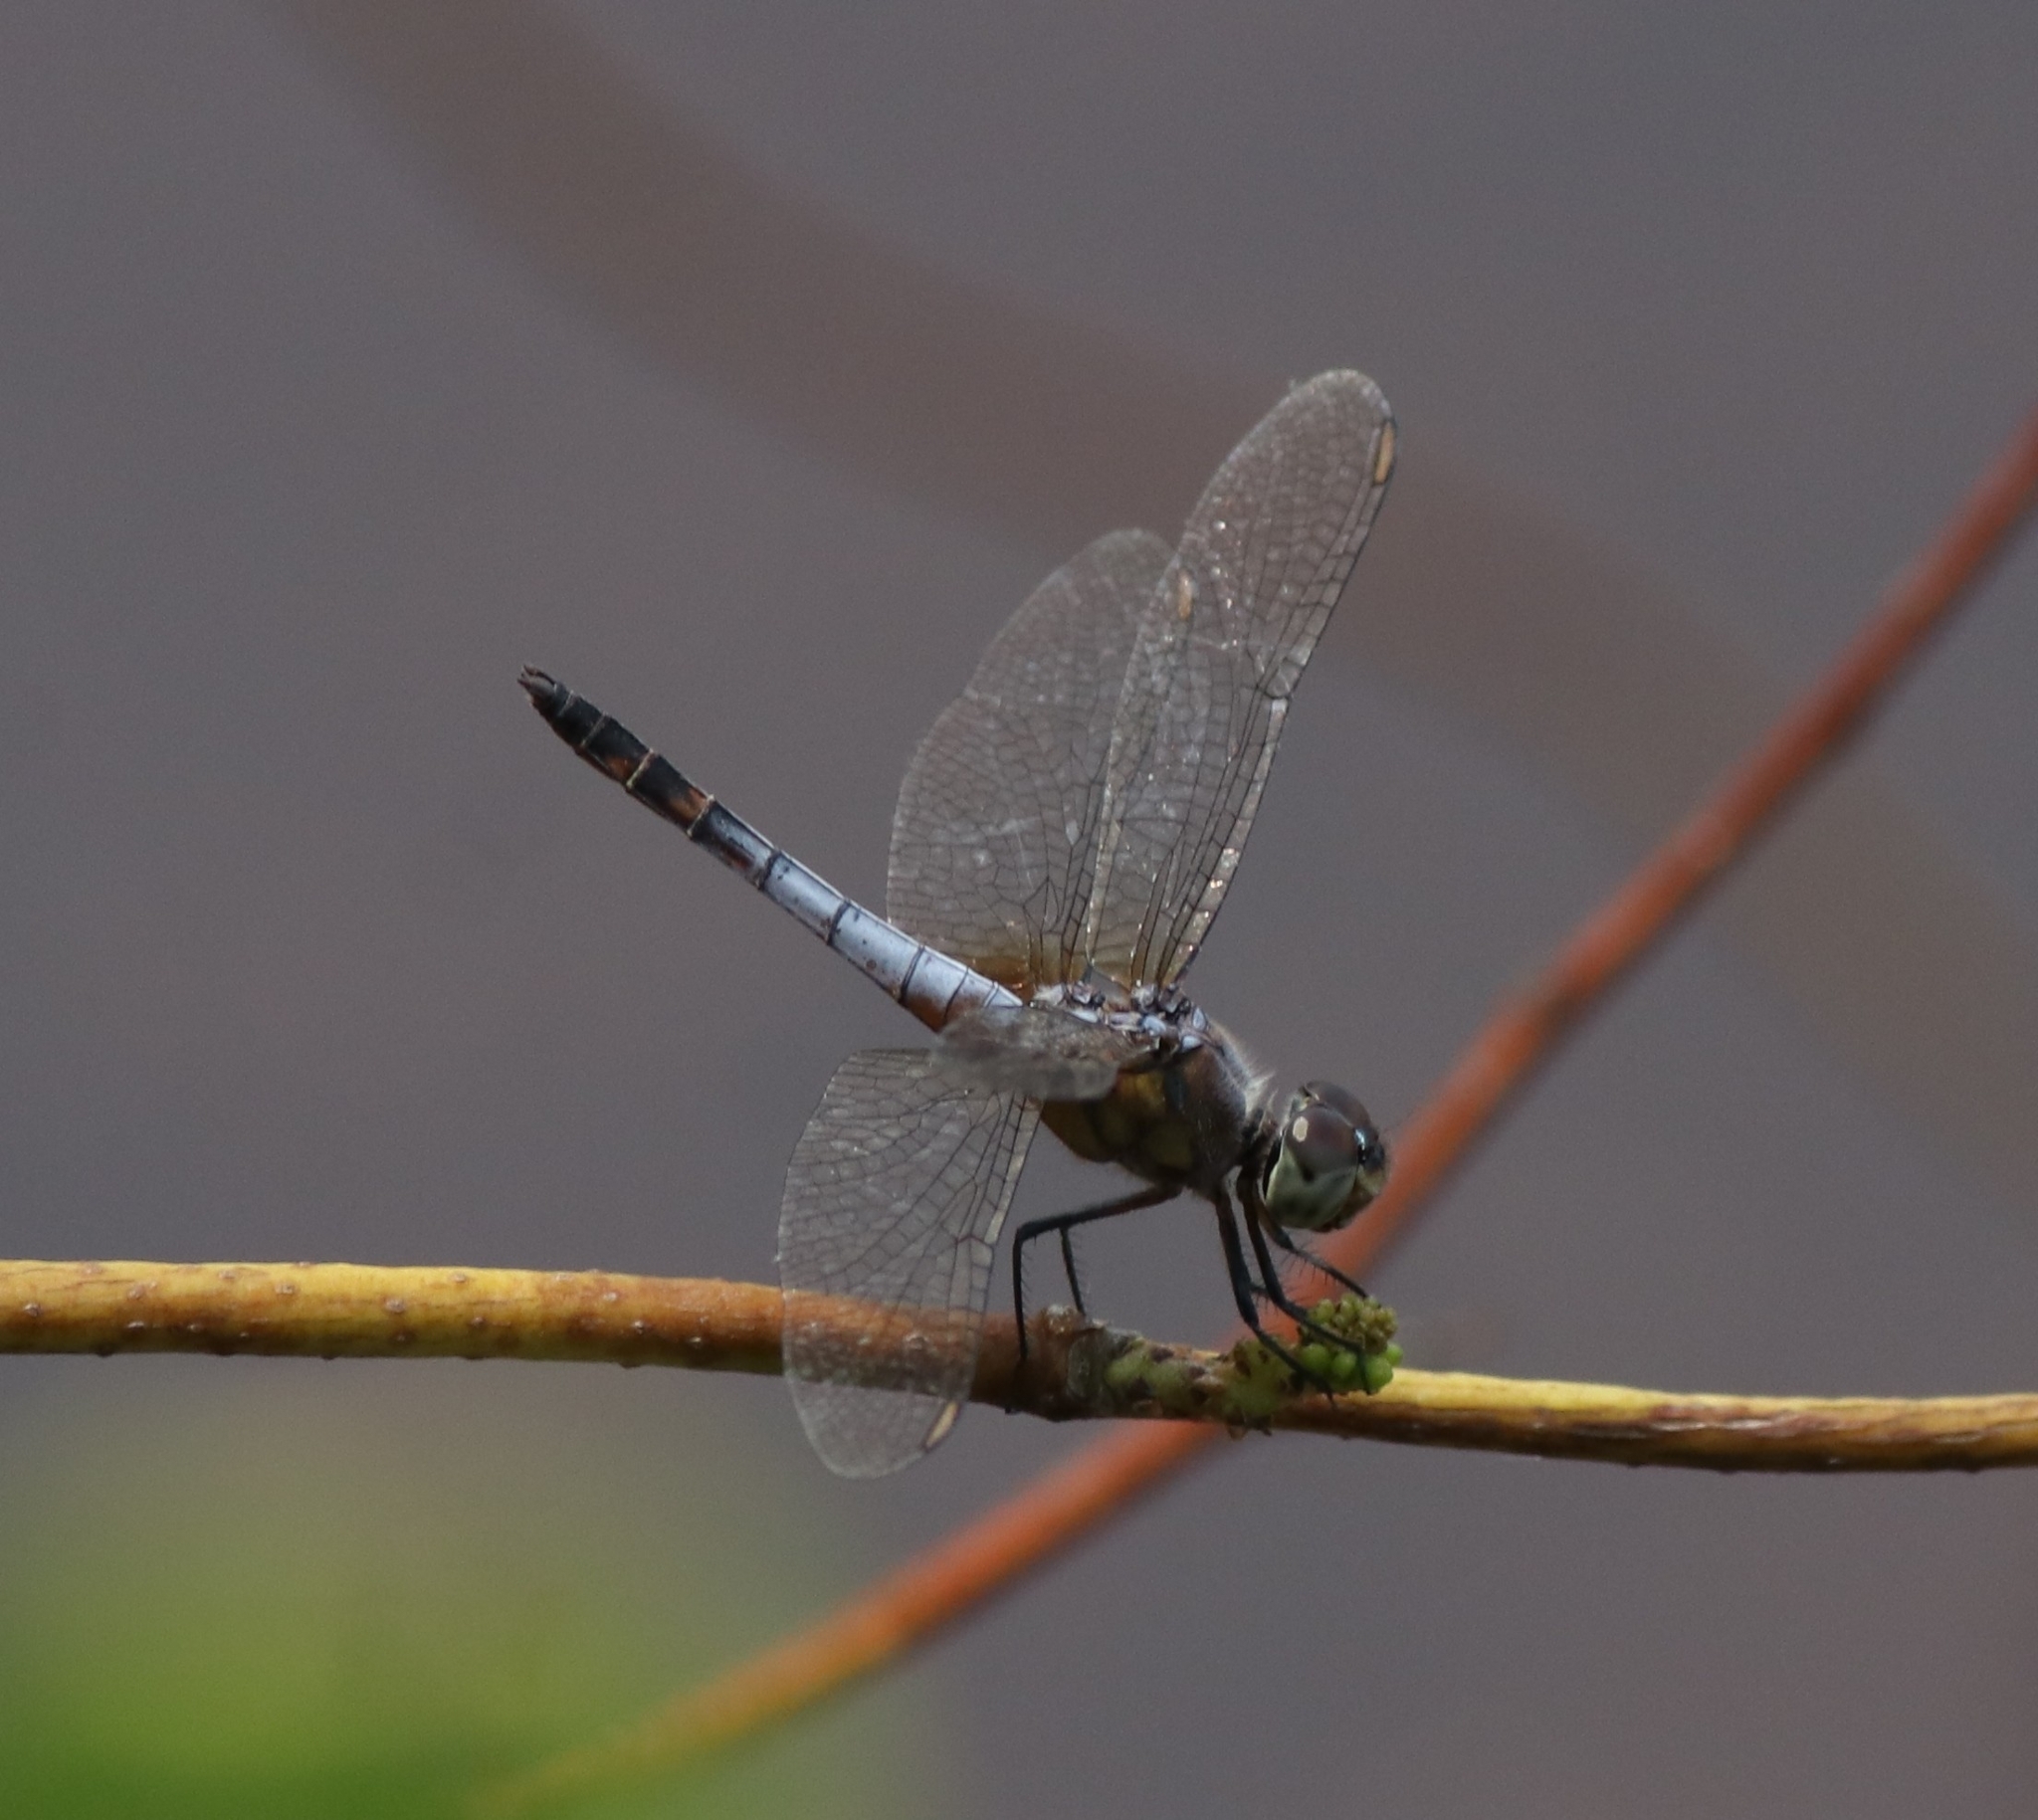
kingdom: Animalia
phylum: Arthropoda
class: Insecta
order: Odonata
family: Libellulidae
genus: Brachydiplax
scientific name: Brachydiplax chalybea
